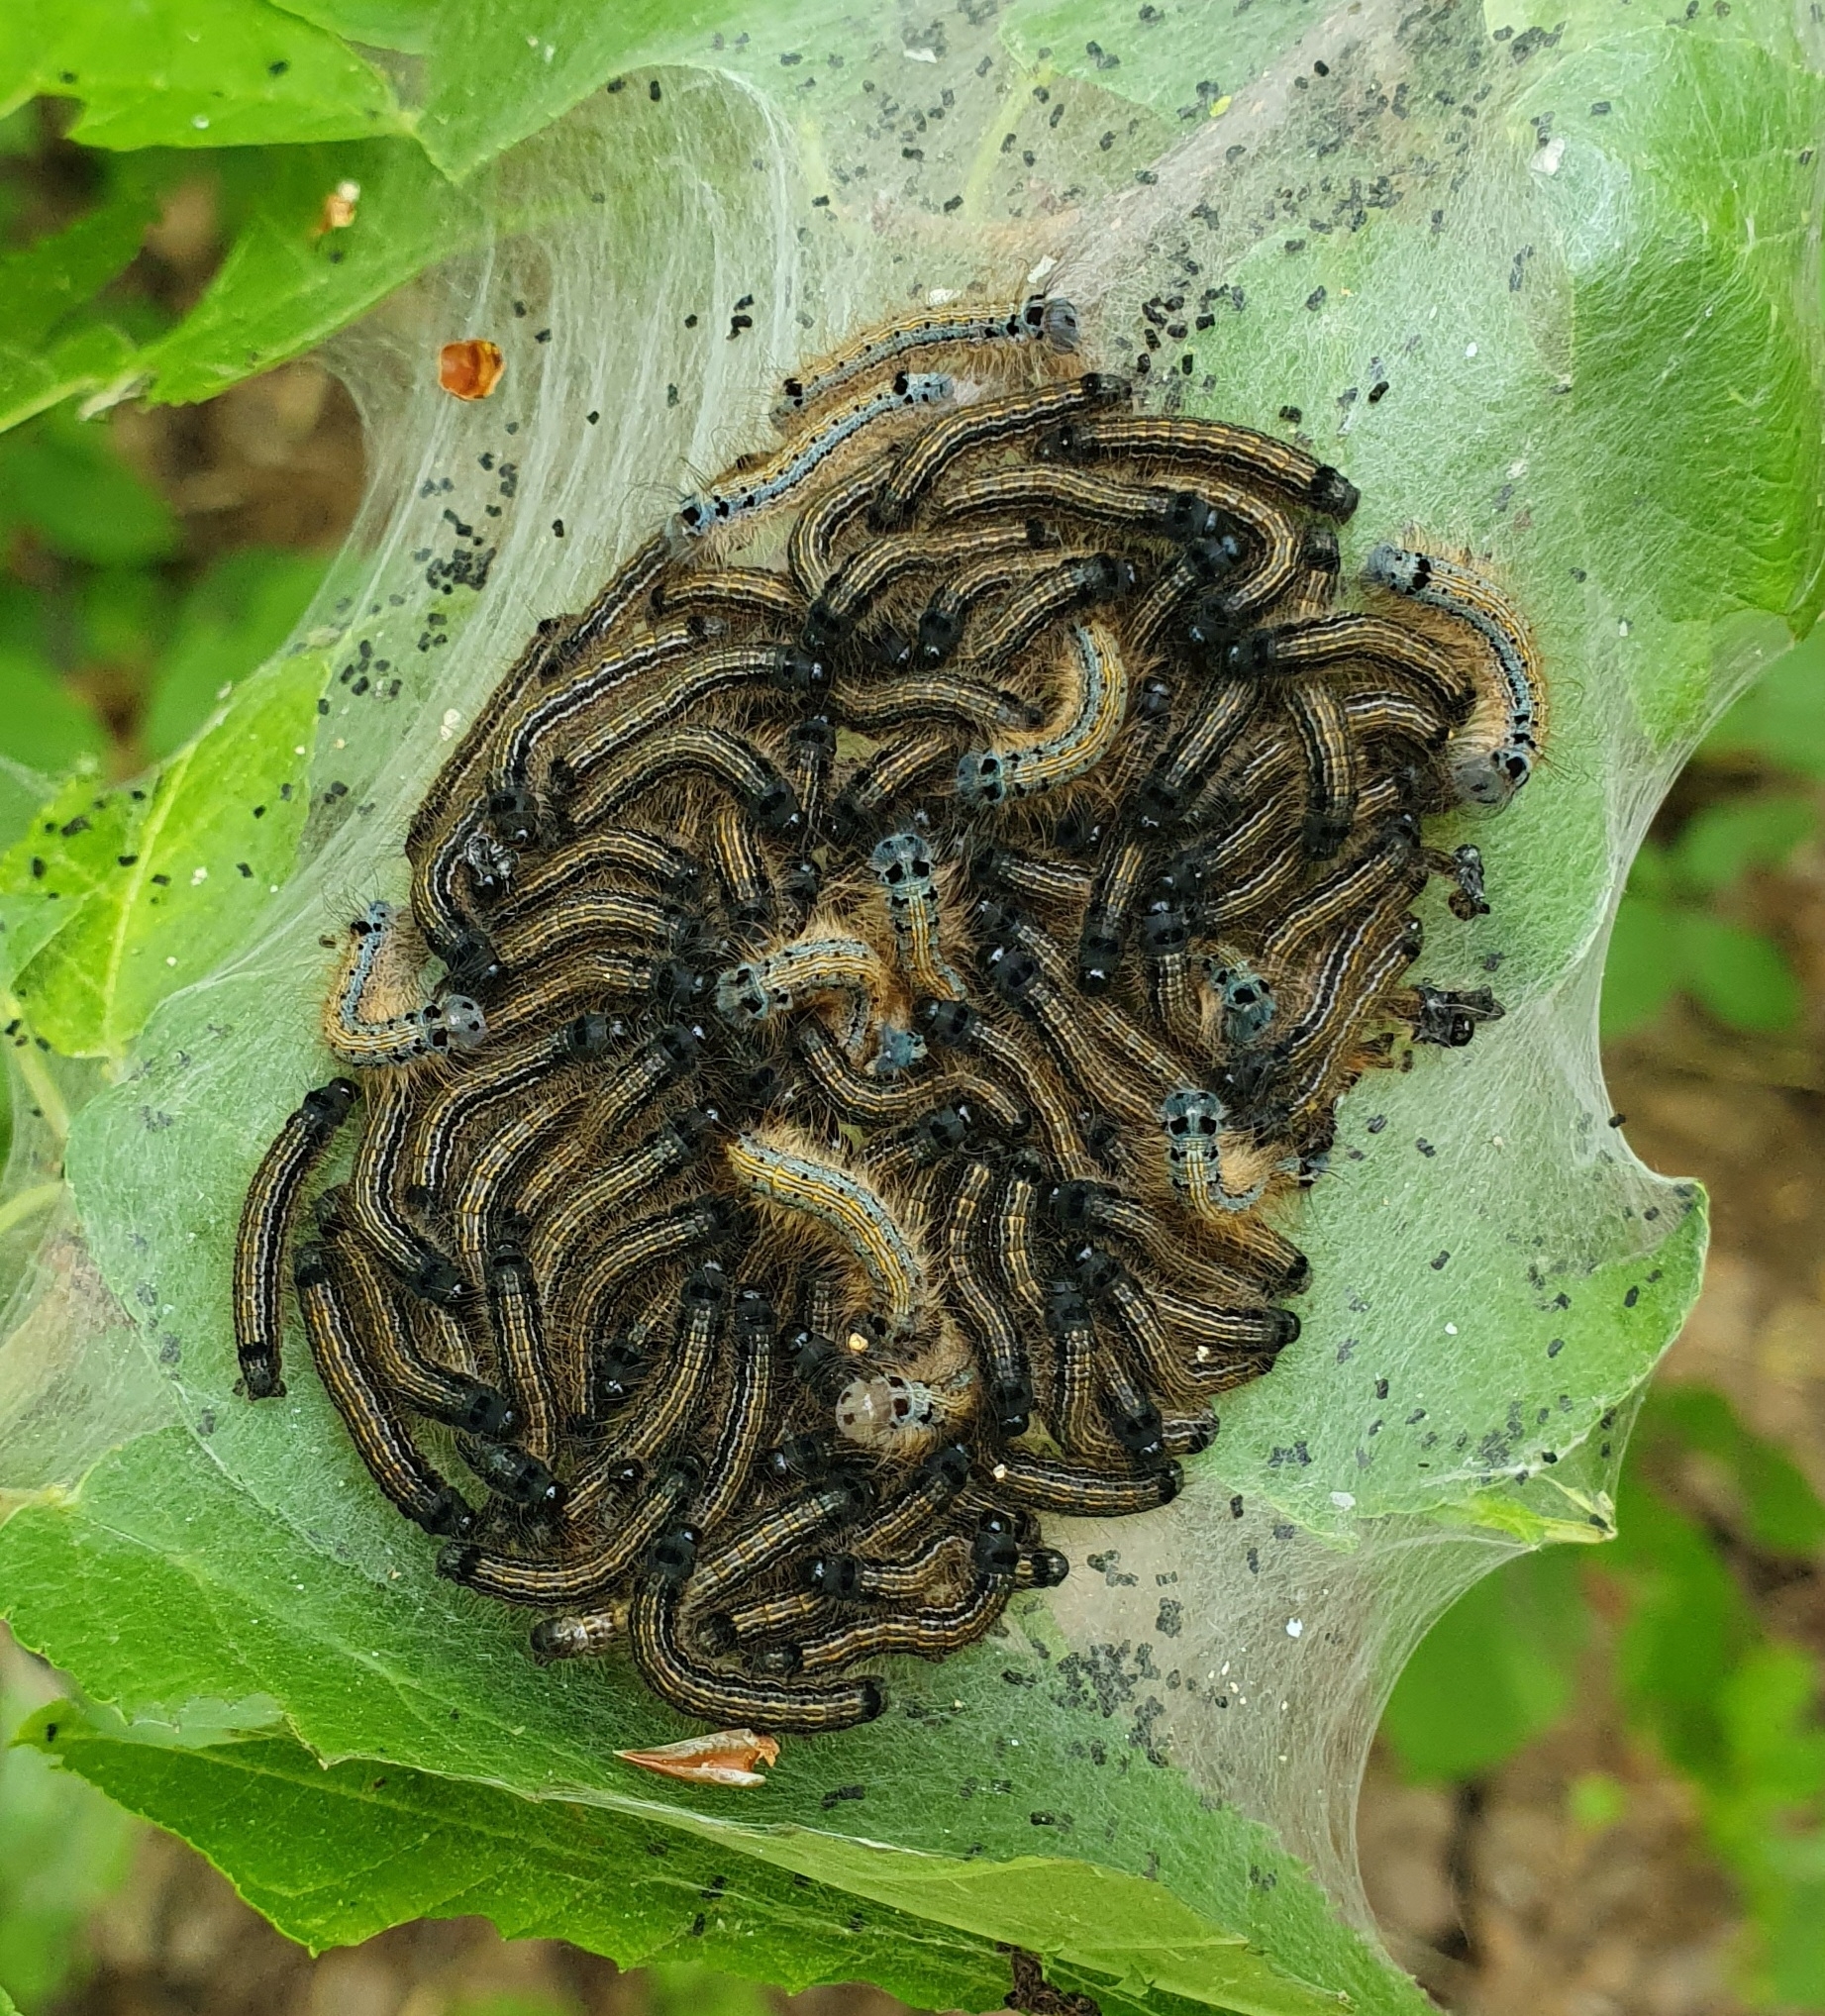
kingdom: Animalia
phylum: Arthropoda
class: Insecta
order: Lepidoptera
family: Lasiocampidae
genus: Malacosoma
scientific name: Malacosoma neustria
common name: The lackey
